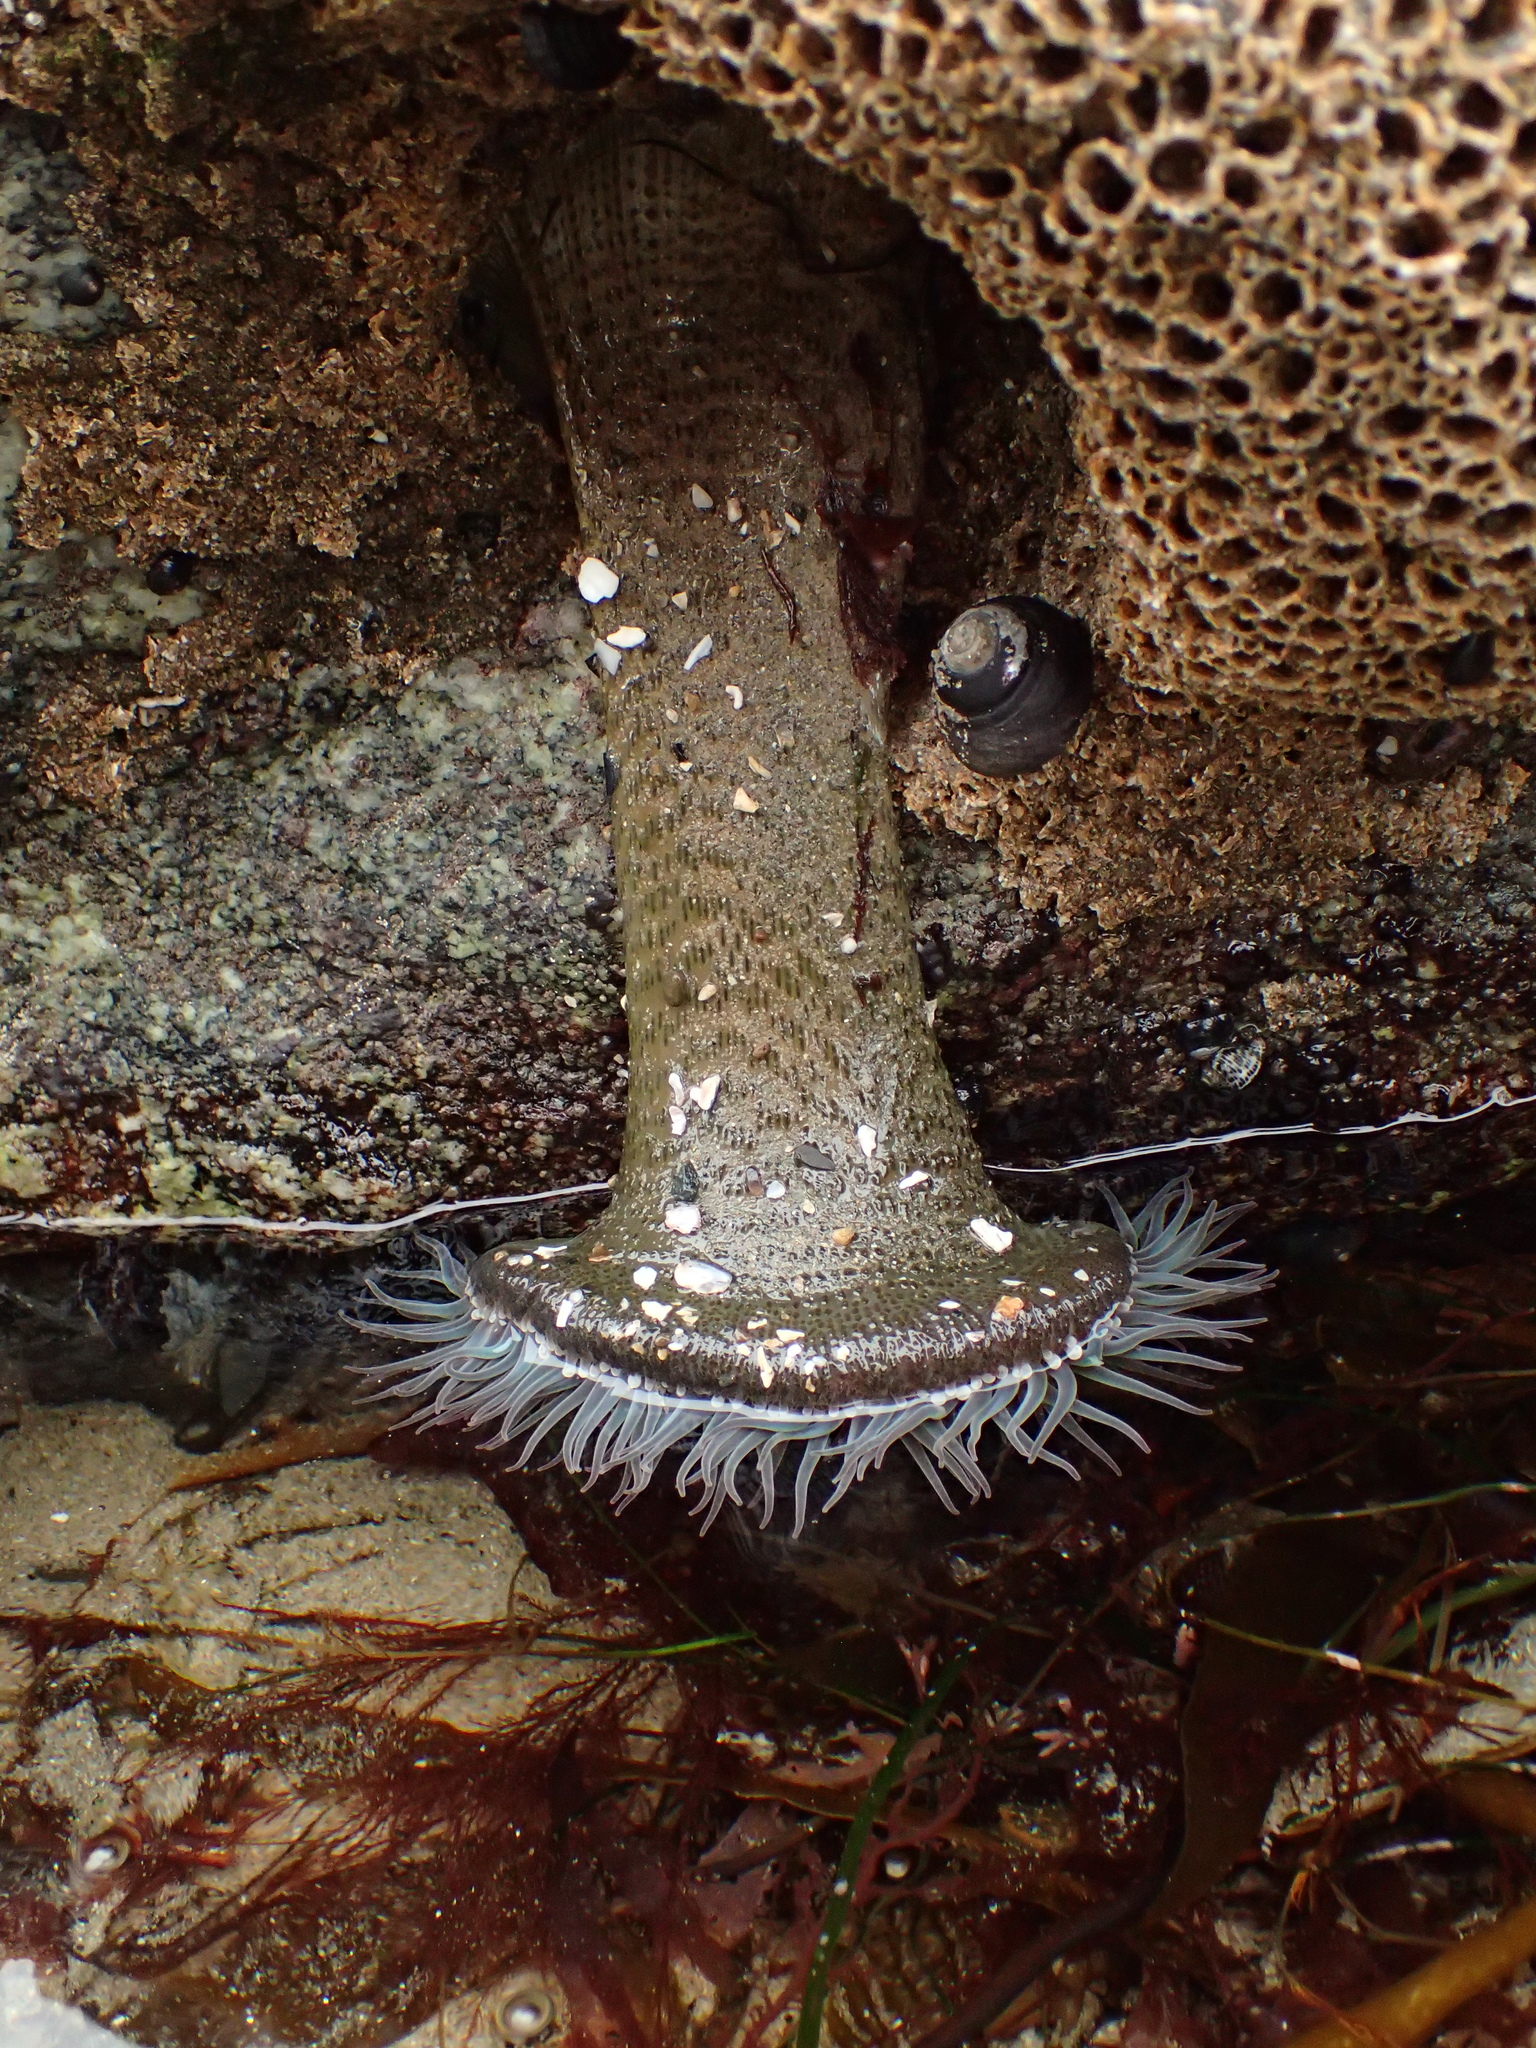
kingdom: Animalia
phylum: Cnidaria
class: Anthozoa
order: Actiniaria
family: Actiniidae
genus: Anthopleura
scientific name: Anthopleura sola
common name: Sun anemone
